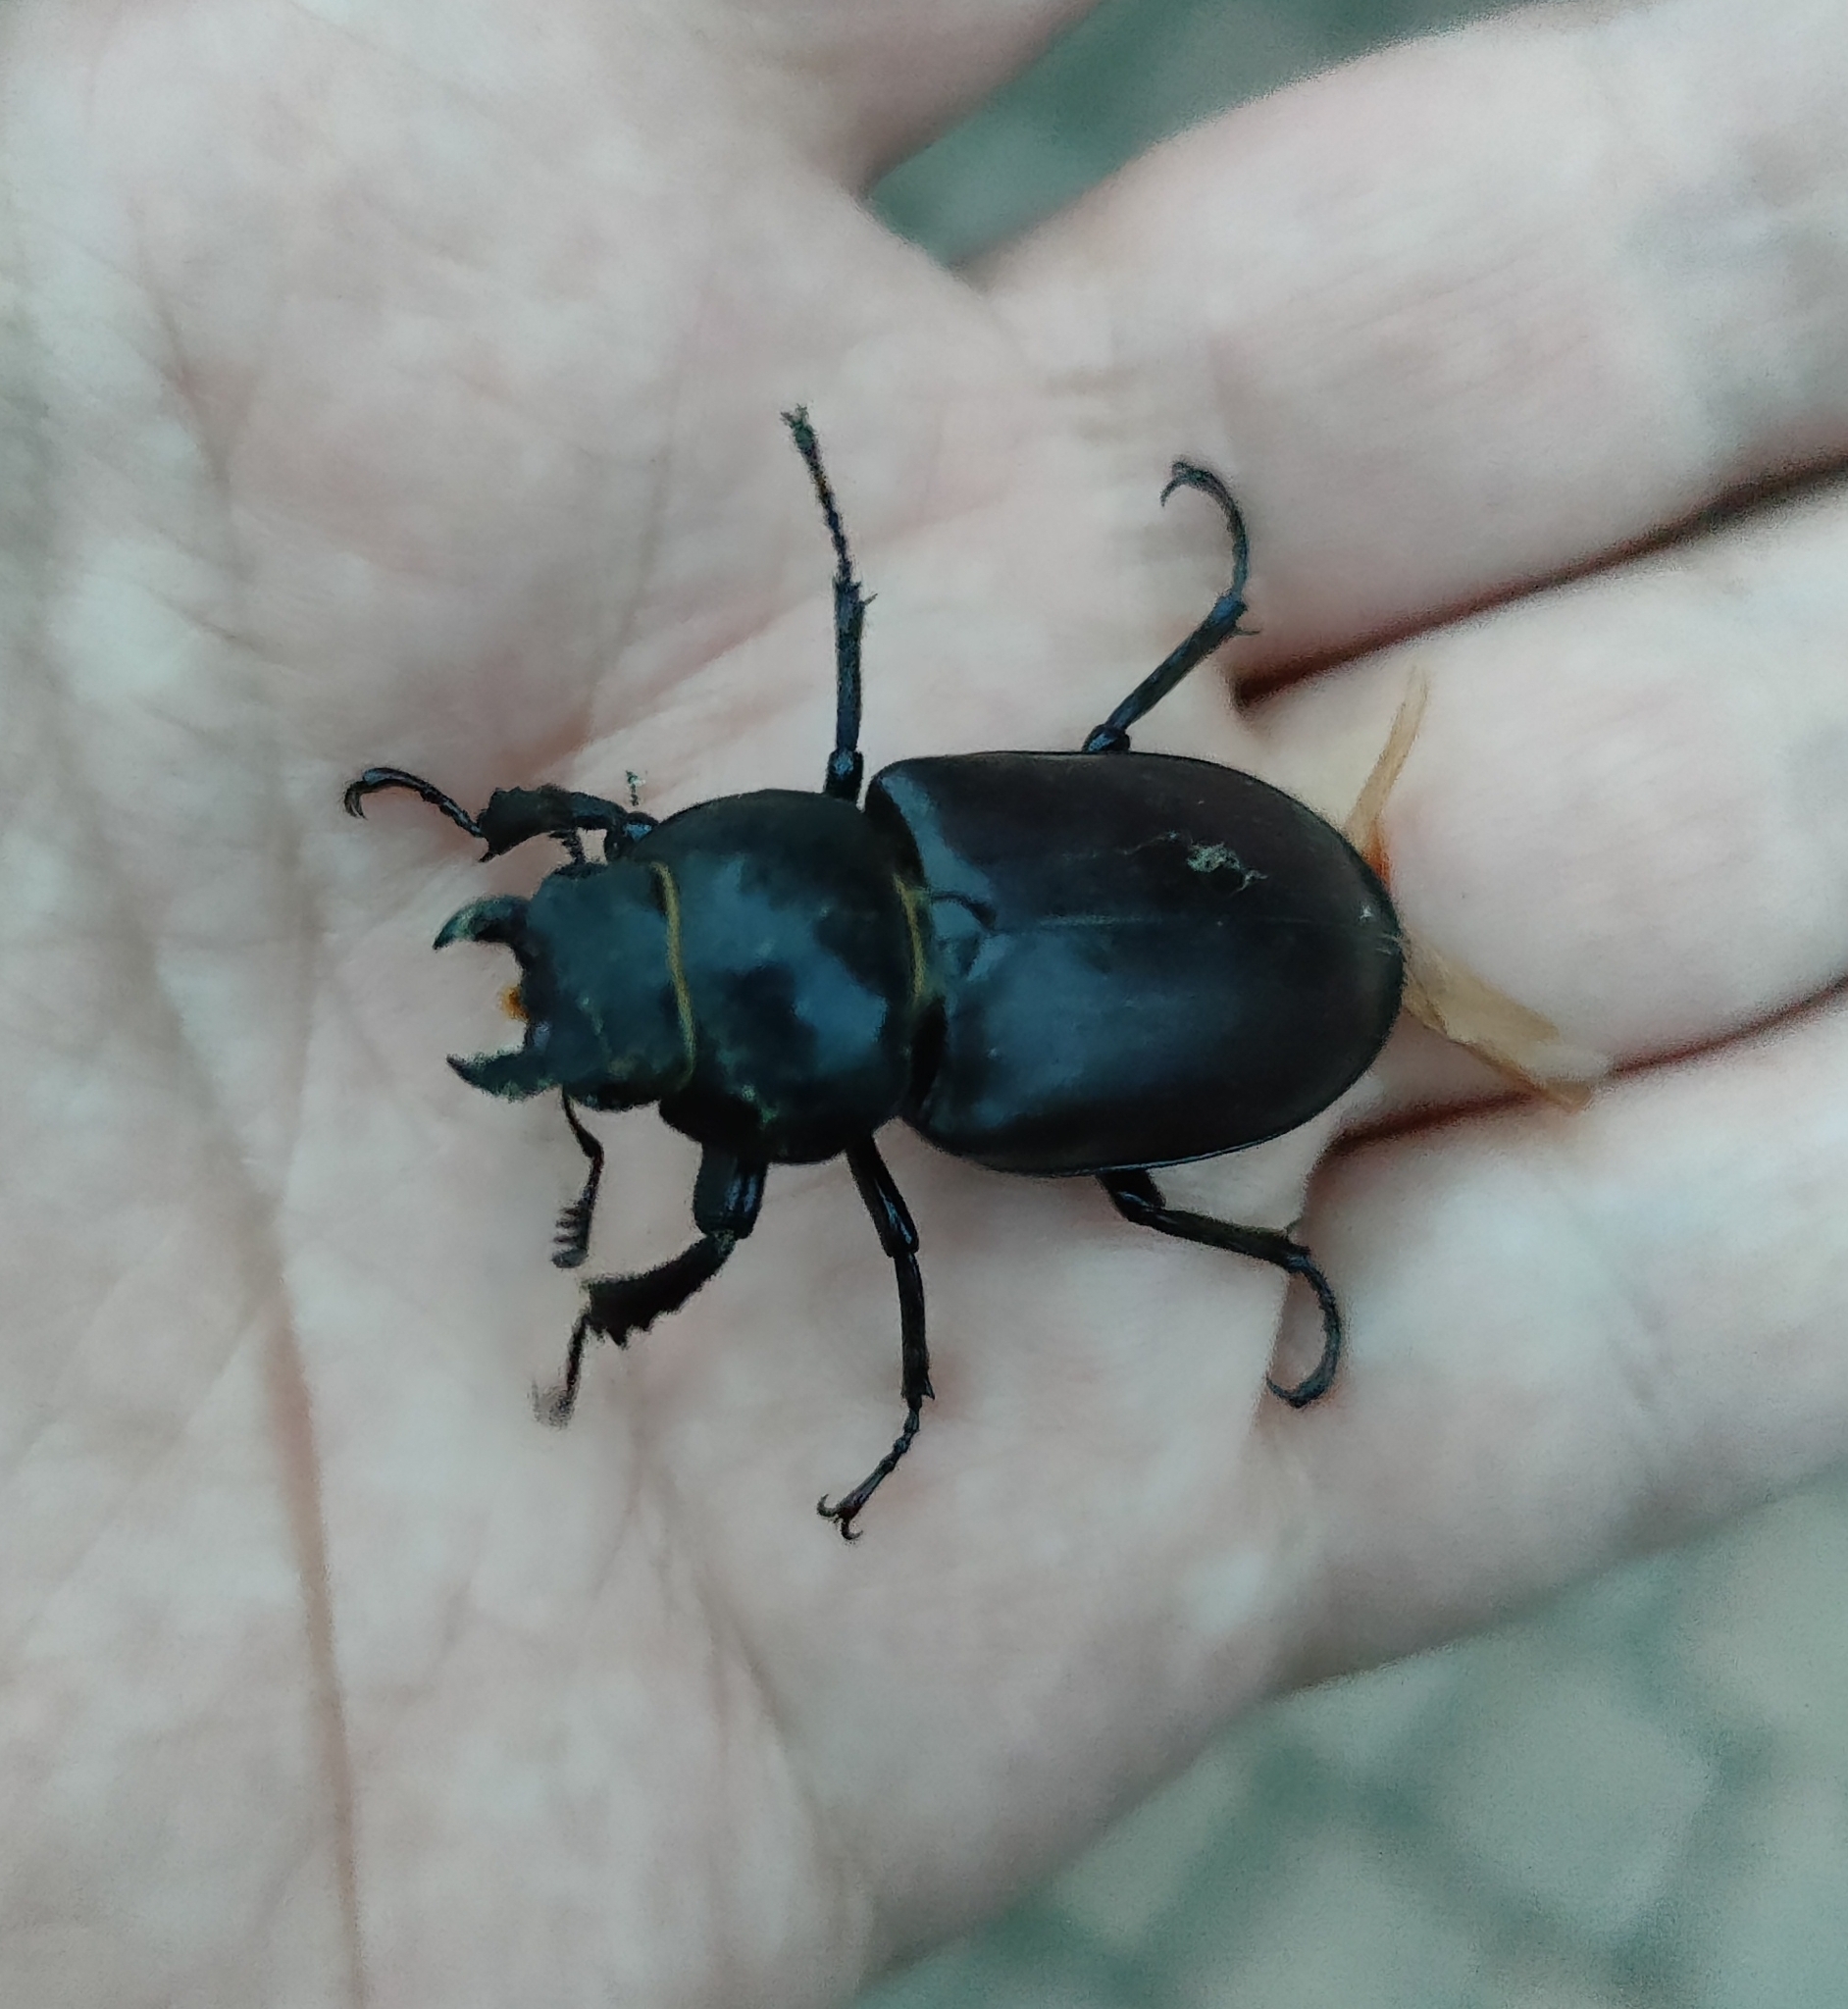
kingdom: Animalia
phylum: Arthropoda
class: Insecta
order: Coleoptera
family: Lucanidae
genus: Lucanus
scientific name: Lucanus cervus
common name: Stag beetle
